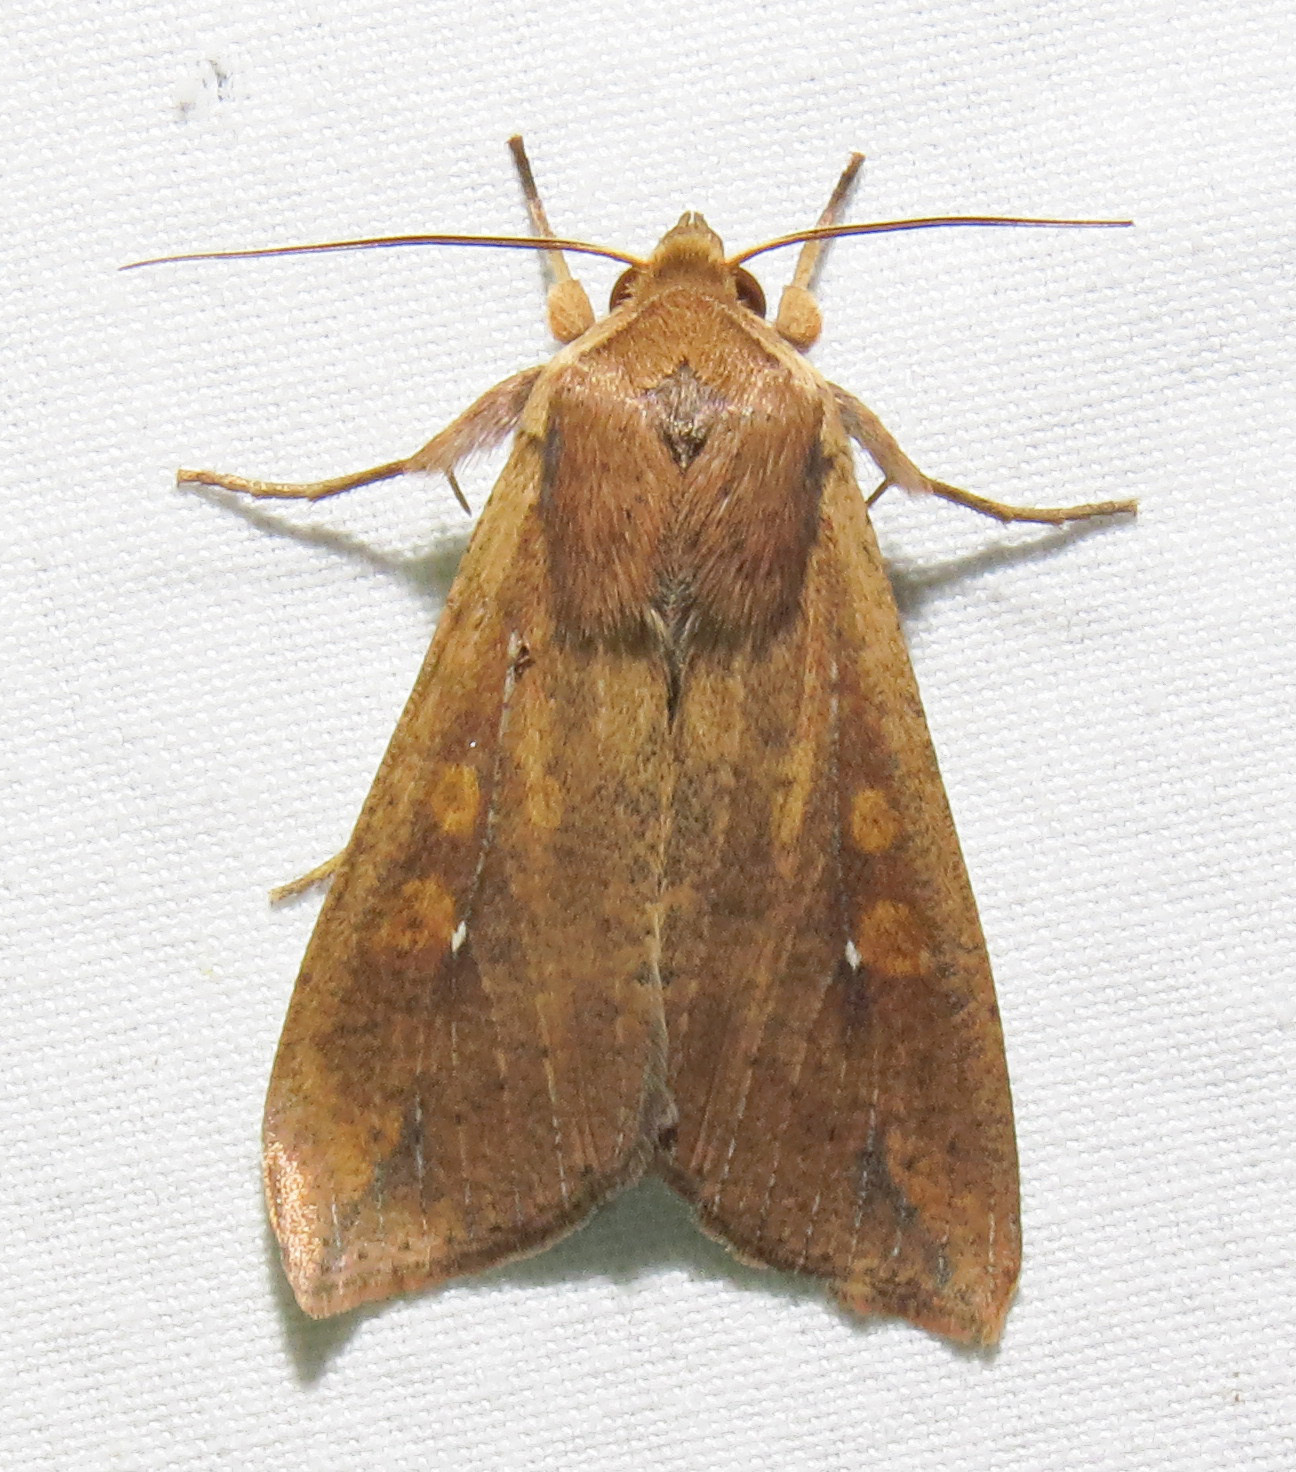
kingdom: Animalia
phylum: Arthropoda
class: Insecta
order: Lepidoptera
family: Noctuidae
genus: Mythimna
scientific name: Mythimna unipuncta
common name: White-speck
